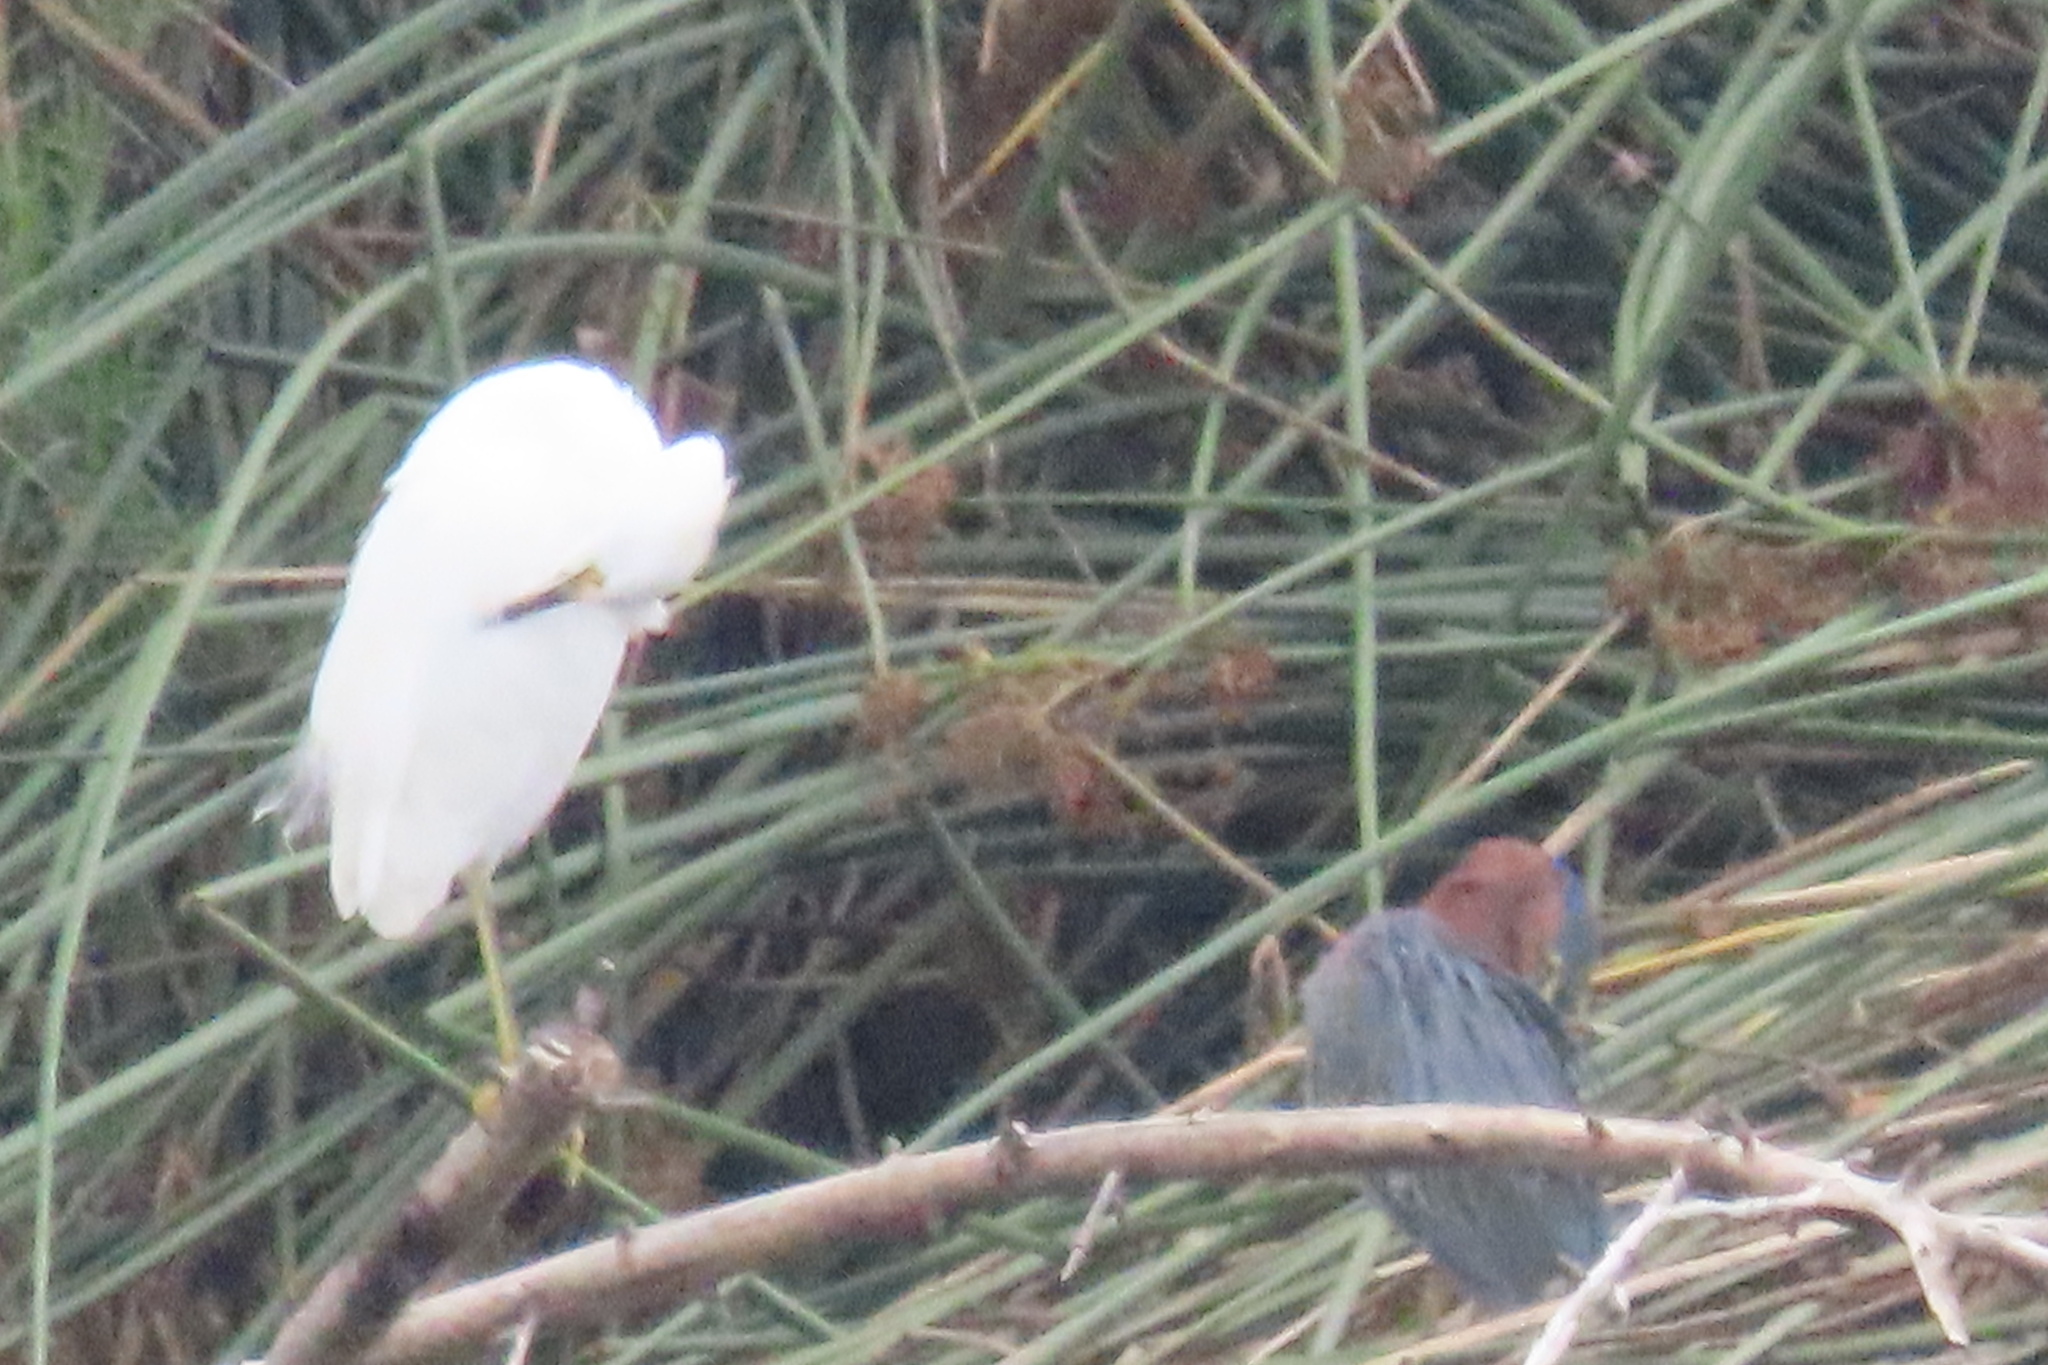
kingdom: Animalia
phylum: Chordata
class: Aves
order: Pelecaniformes
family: Ardeidae
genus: Butorides
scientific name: Butorides virescens
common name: Green heron
